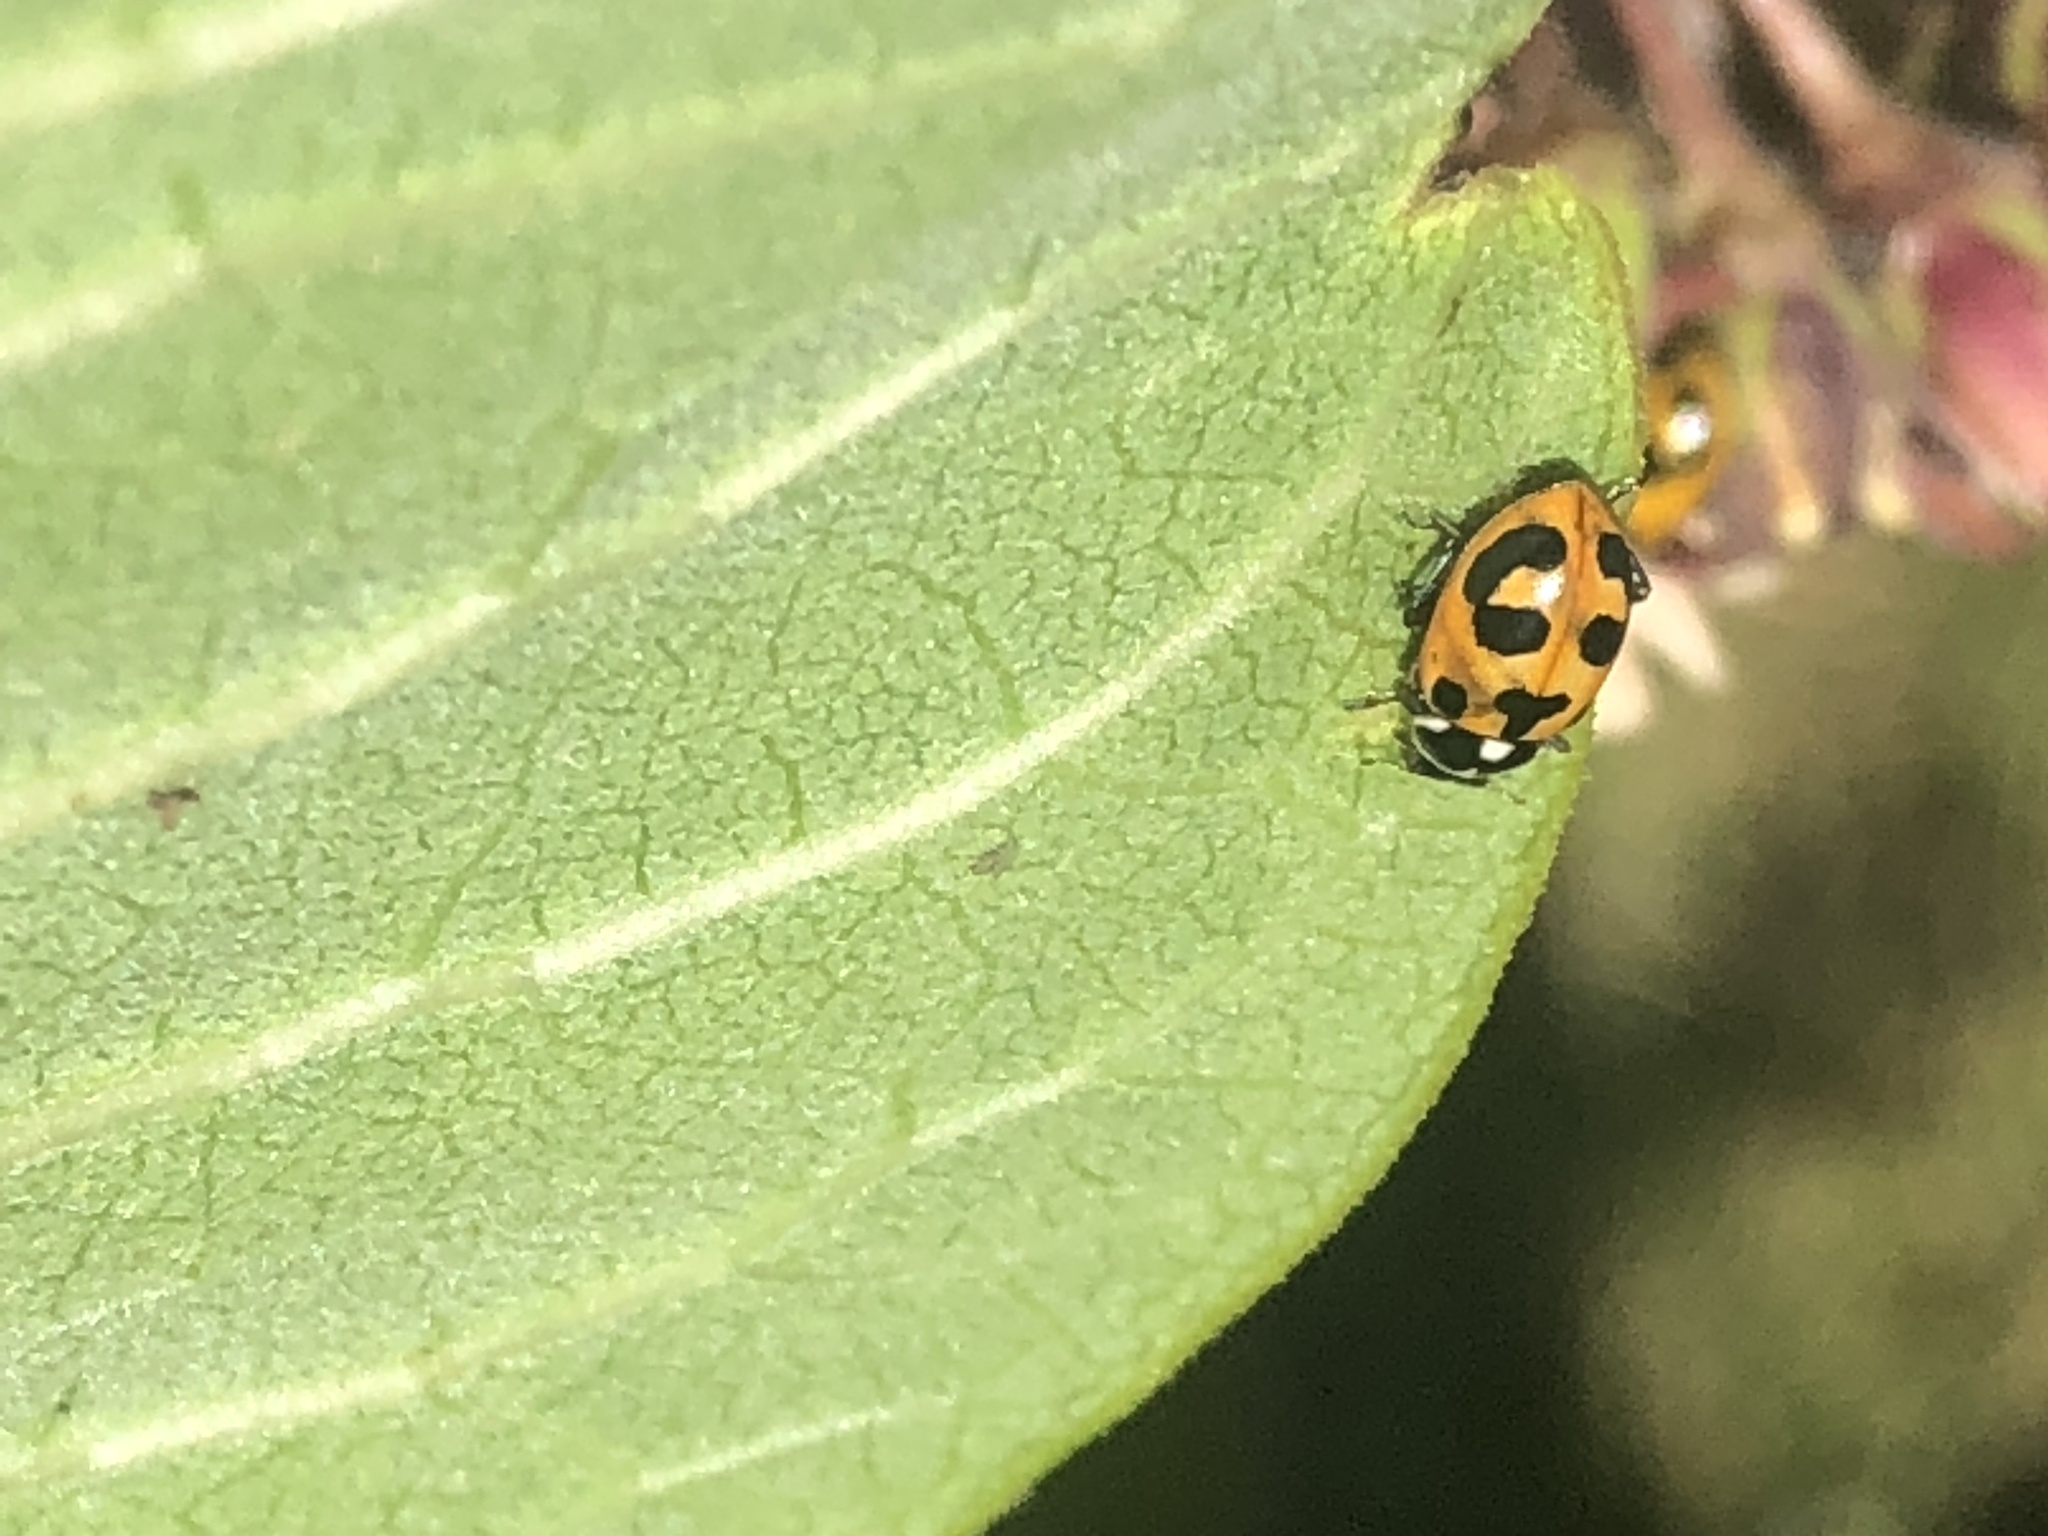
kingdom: Animalia
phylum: Arthropoda
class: Insecta
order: Coleoptera
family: Coccinellidae
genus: Hippodamia
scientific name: Hippodamia parenthesis
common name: Parenthesis lady beetle
